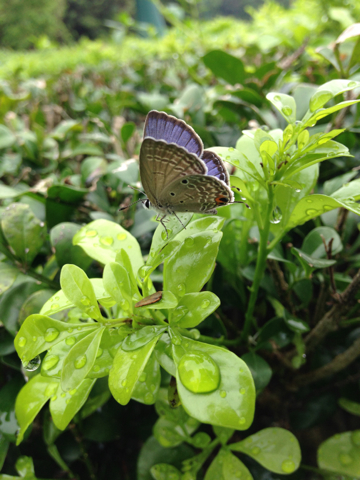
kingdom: Animalia
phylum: Arthropoda
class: Insecta
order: Lepidoptera
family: Lycaenidae
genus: Luthrodes
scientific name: Luthrodes pandava
